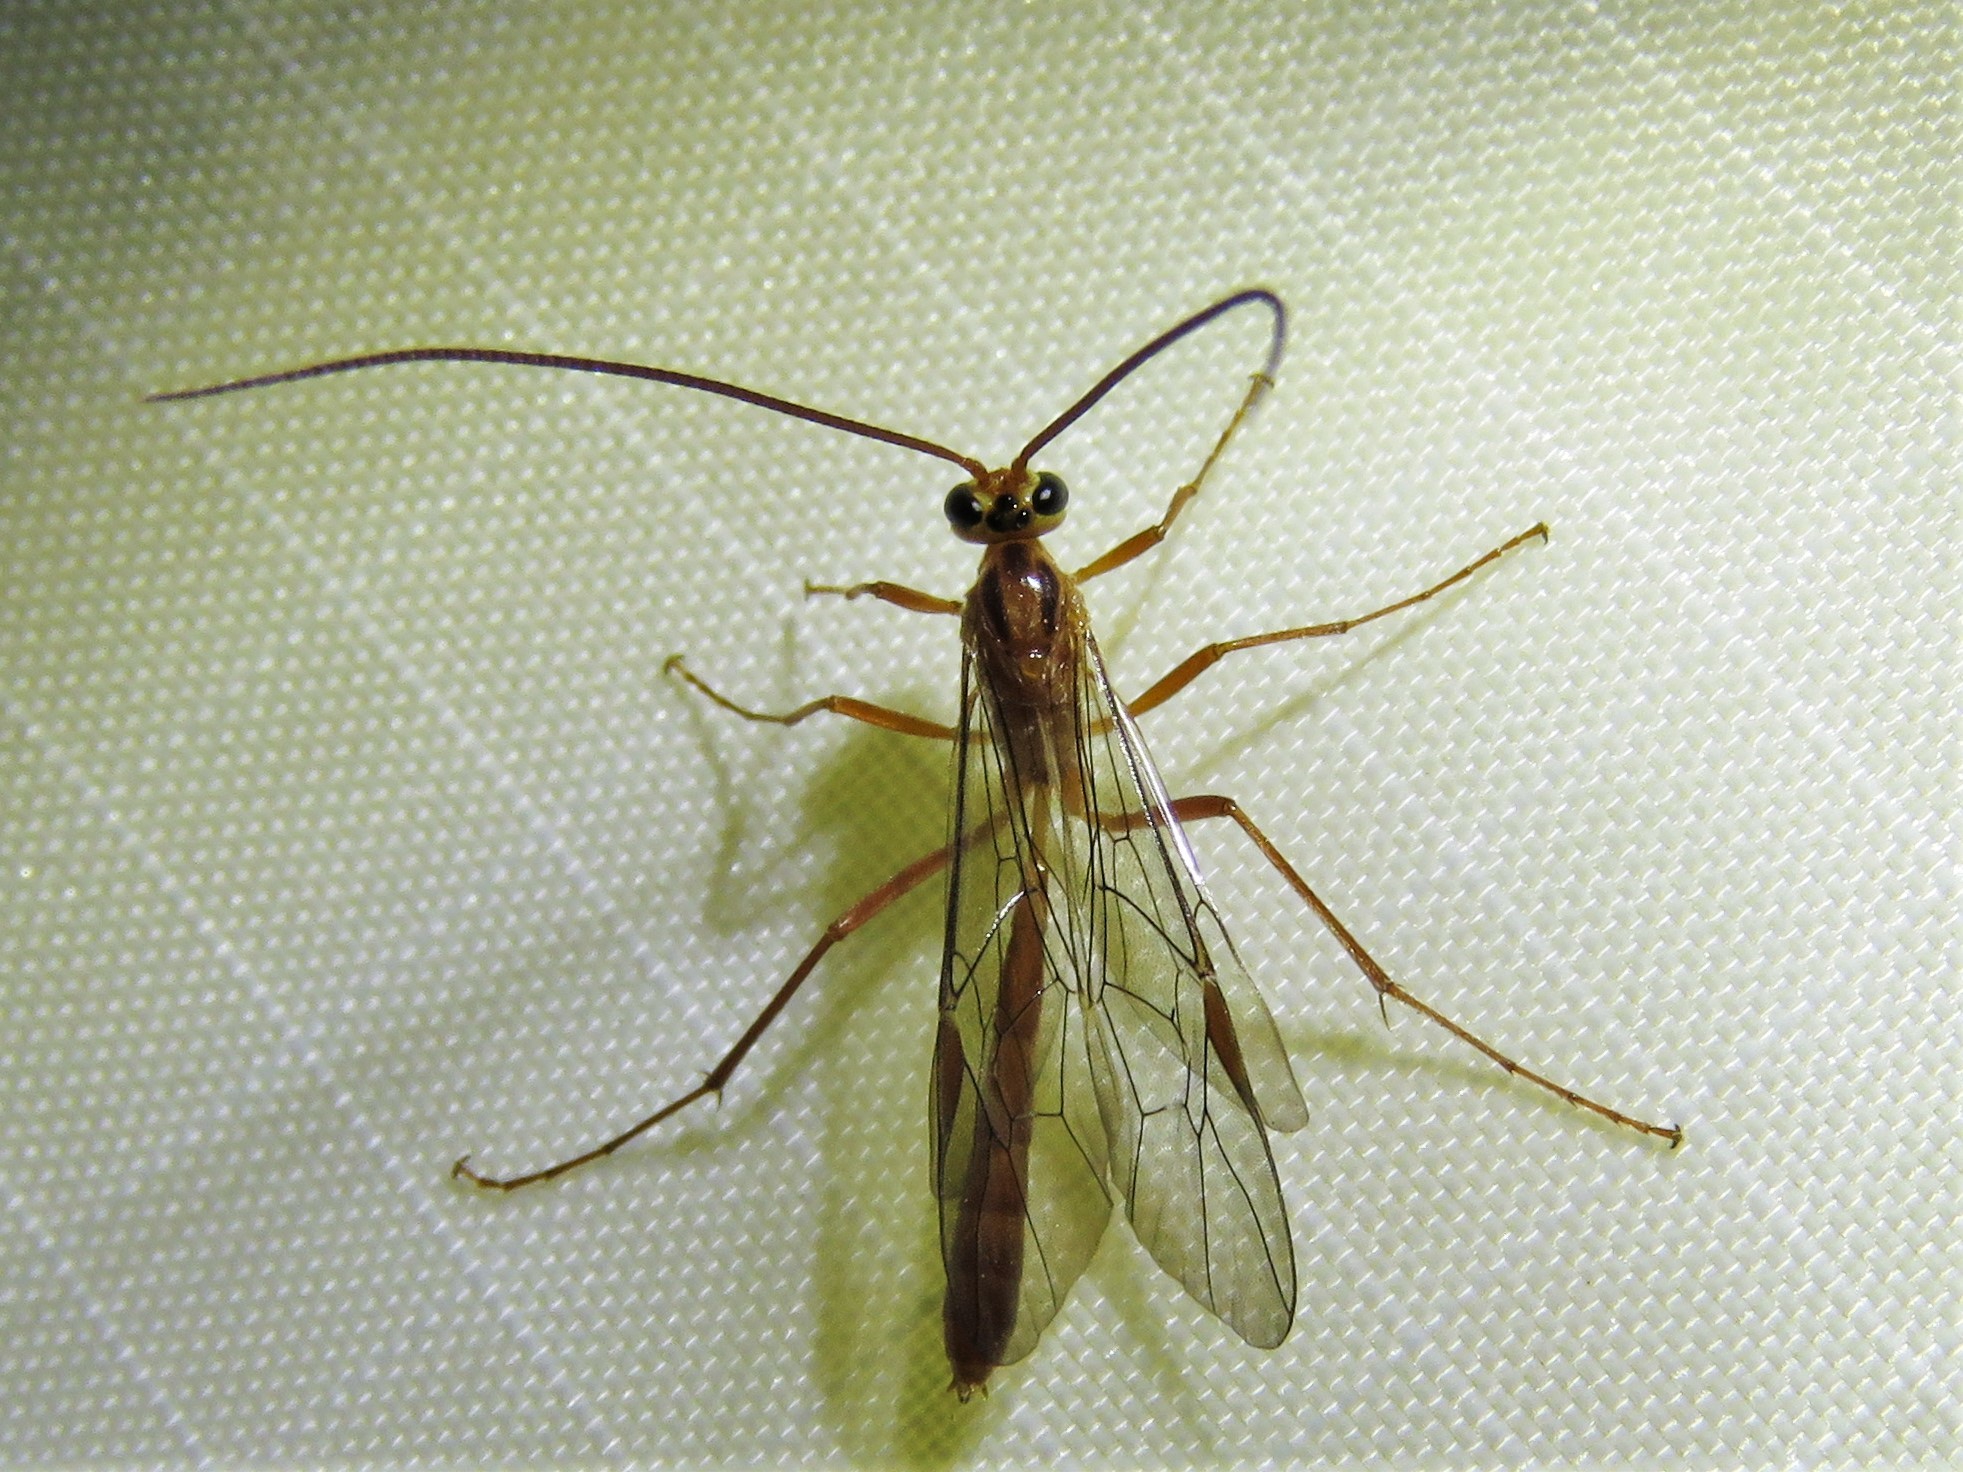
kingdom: Animalia
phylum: Arthropoda
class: Insecta
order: Hymenoptera
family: Ichneumonidae
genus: Ophion
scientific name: Ophion
